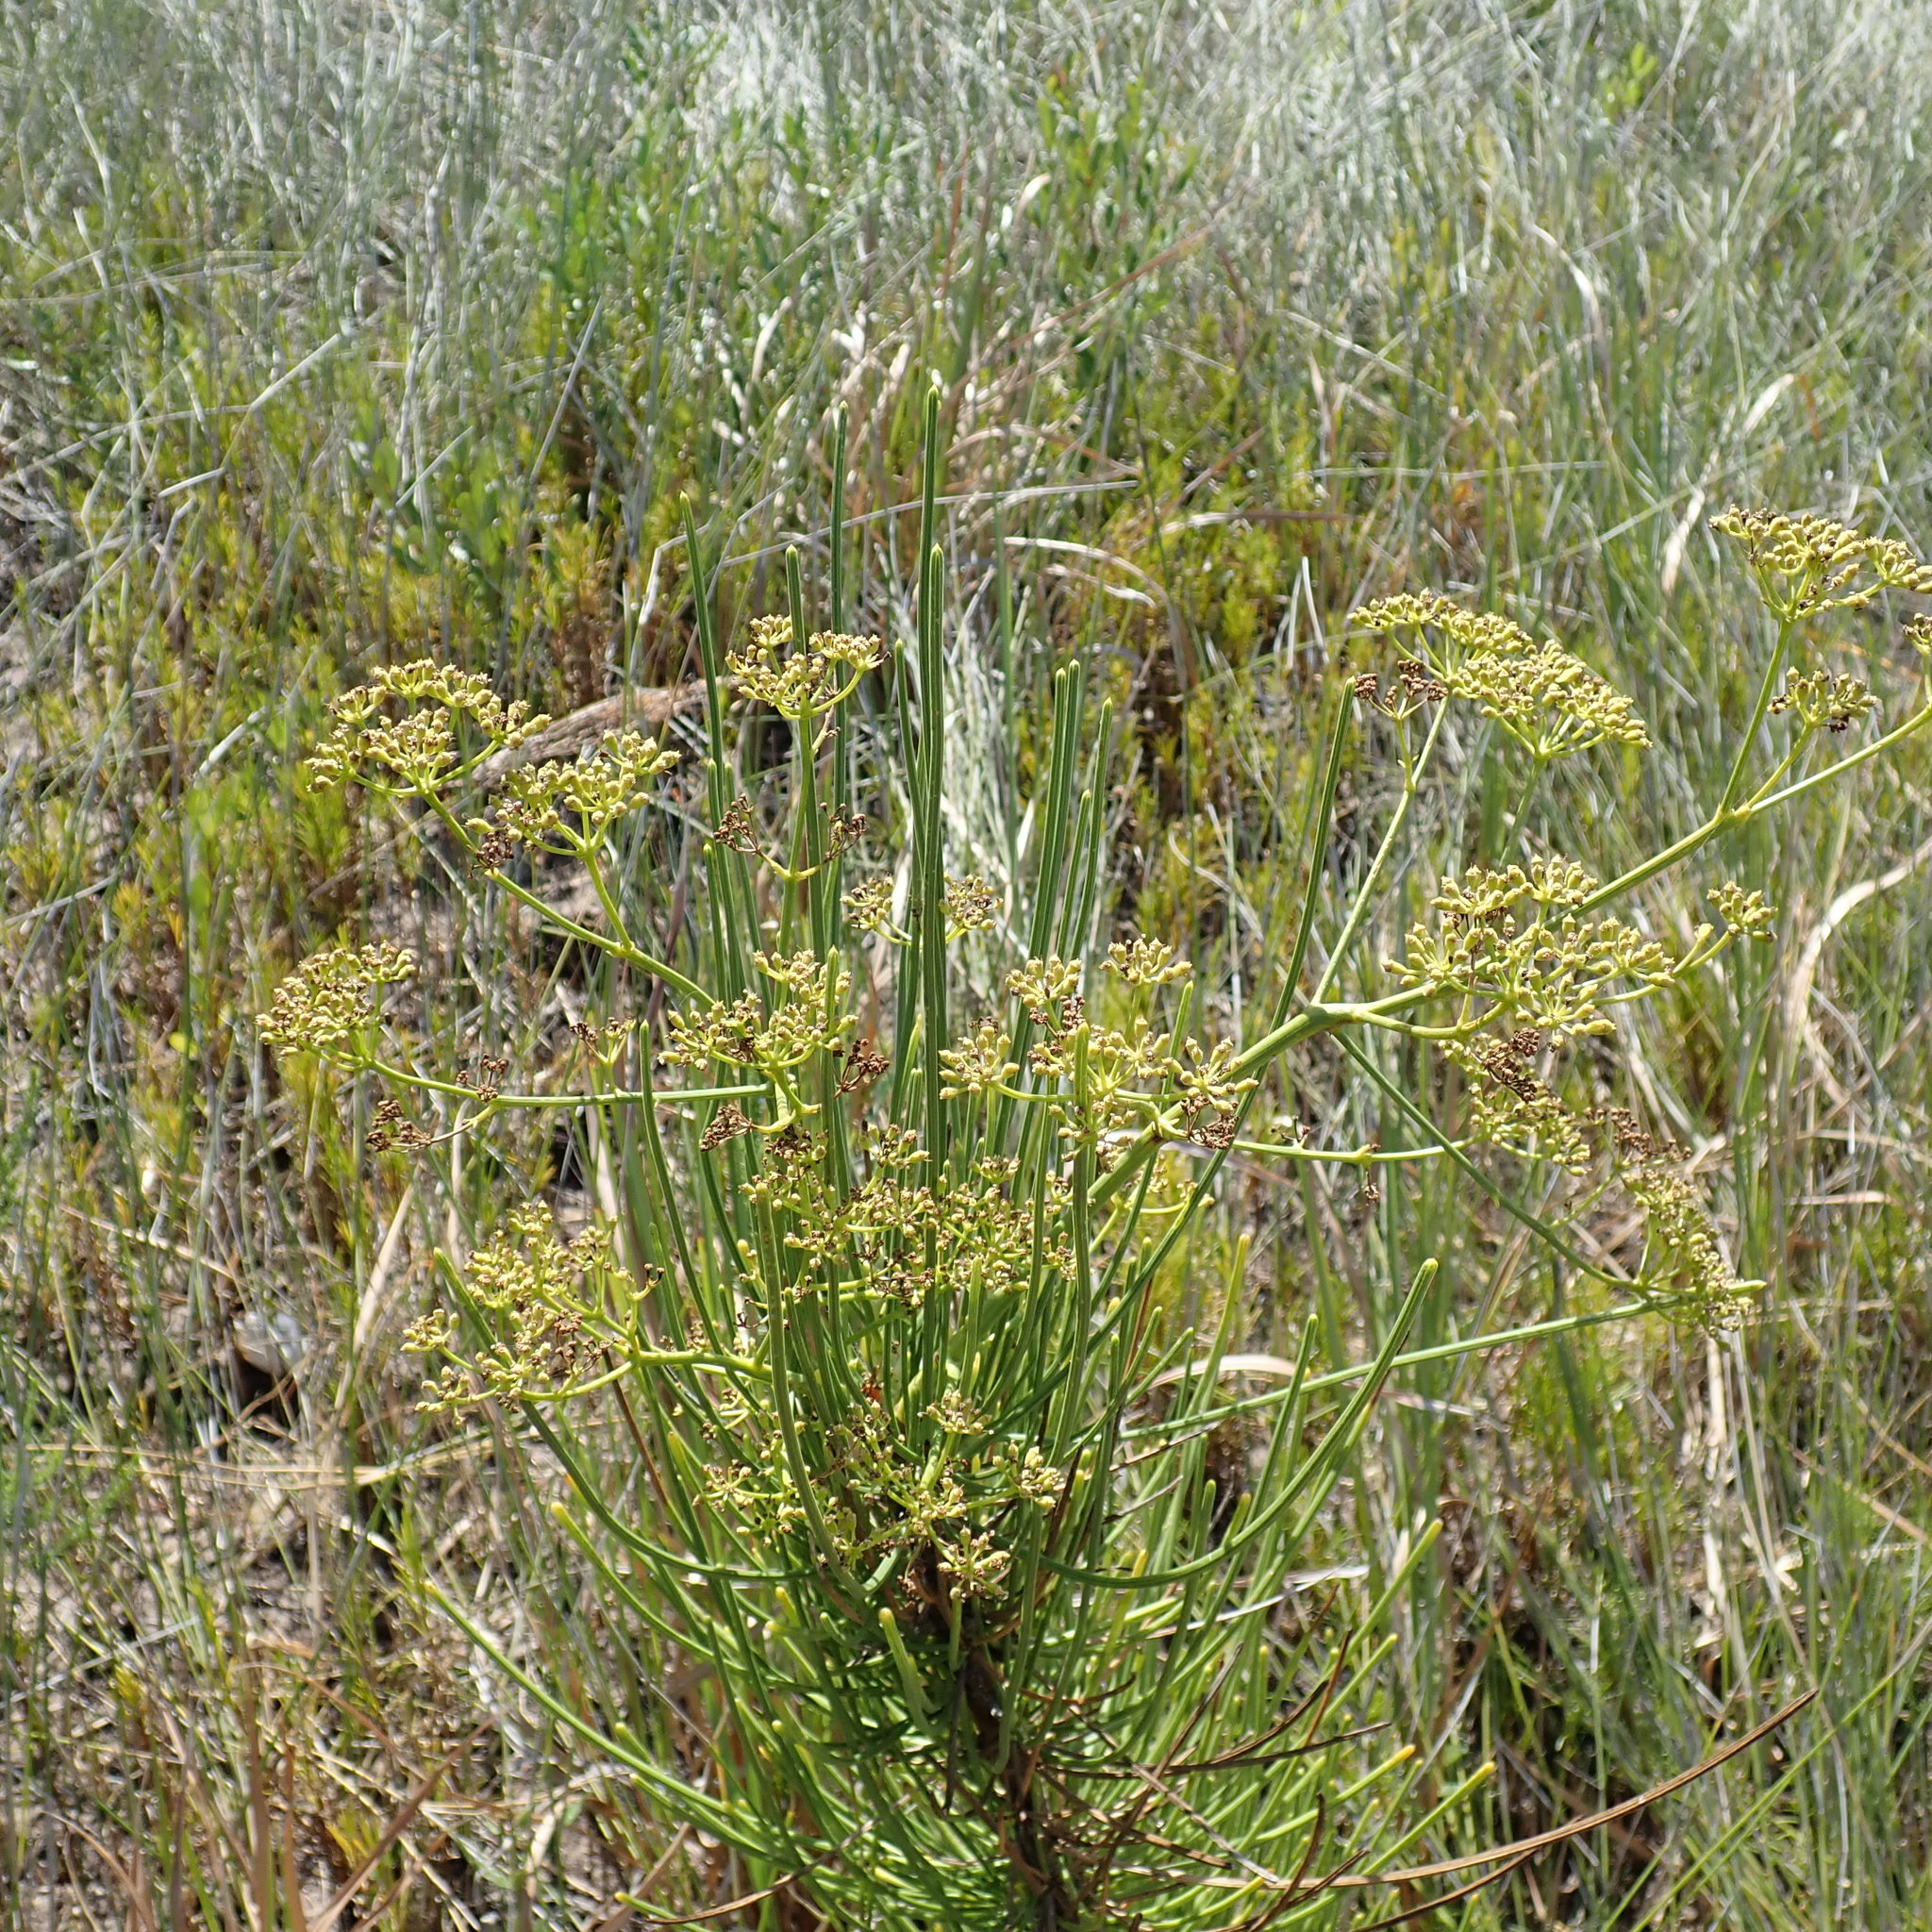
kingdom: Plantae
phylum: Tracheophyta
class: Magnoliopsida
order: Apiales
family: Apiaceae
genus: Anginon
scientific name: Anginon difforme
